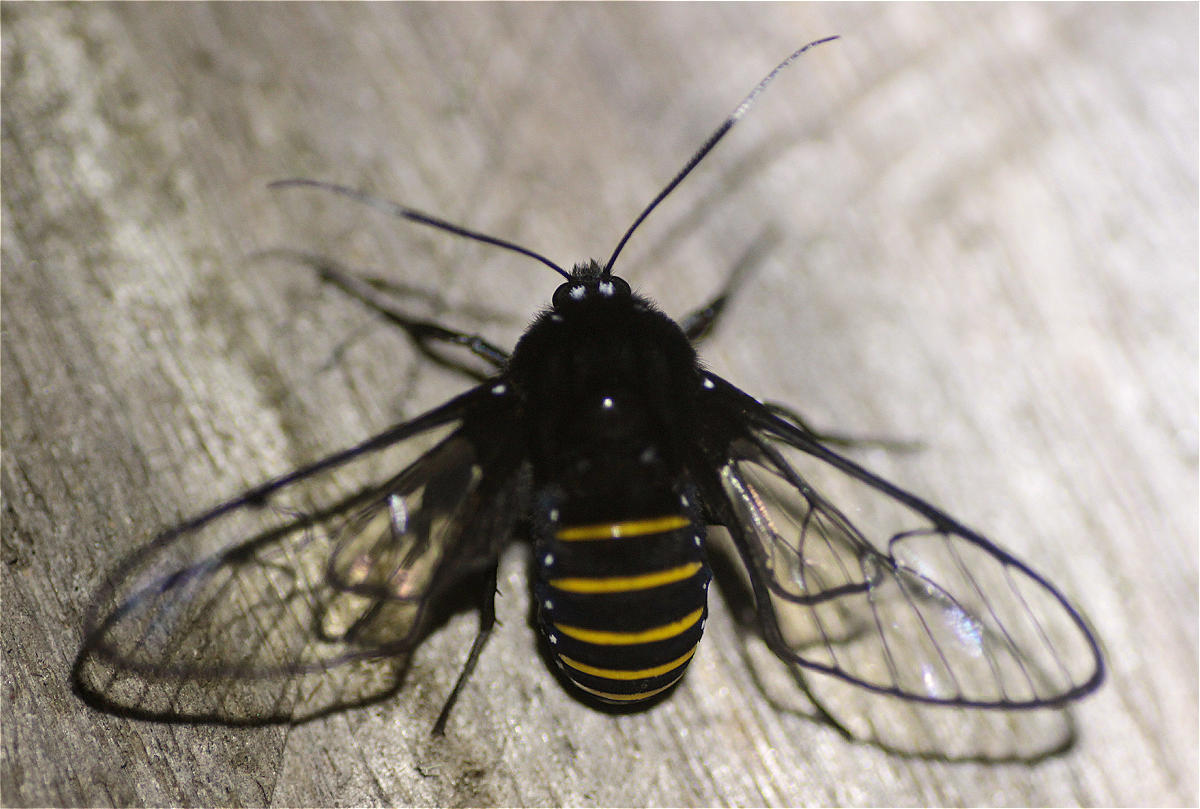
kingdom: Animalia
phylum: Arthropoda
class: Insecta
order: Lepidoptera
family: Erebidae
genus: Homoeocera
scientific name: Homoeocera crassa
